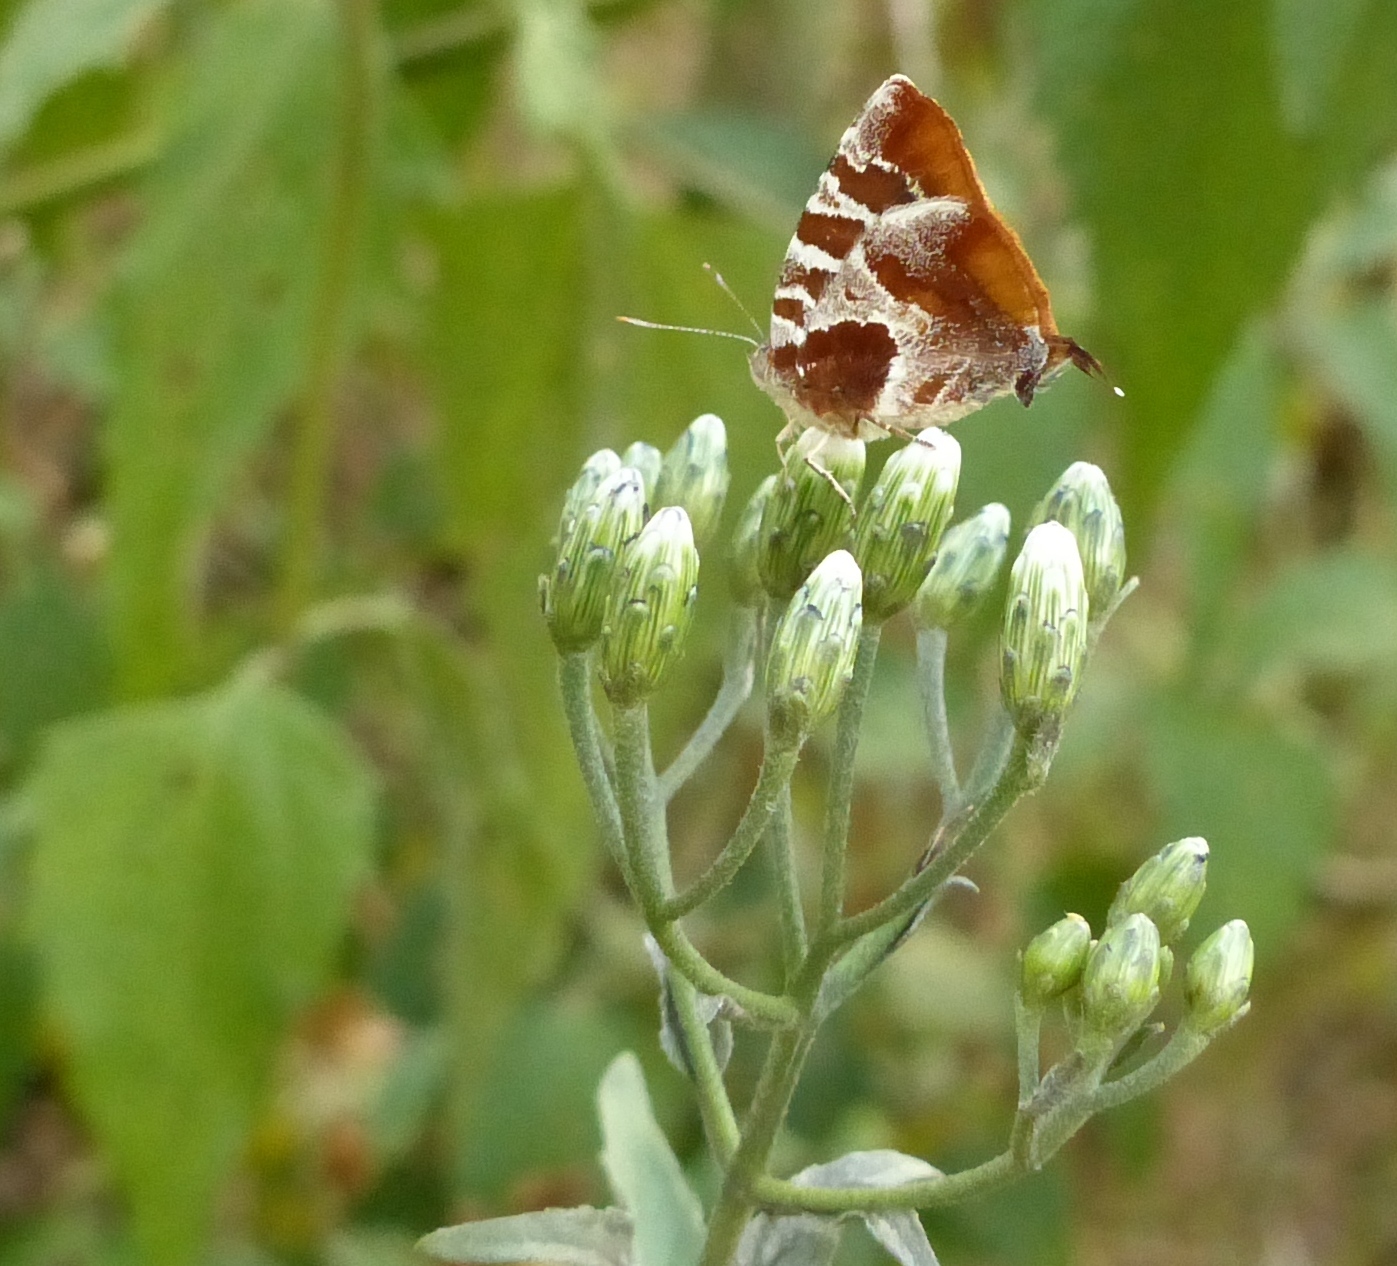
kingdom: Animalia
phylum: Arthropoda
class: Insecta
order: Lepidoptera
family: Lycaenidae
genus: Arawacus
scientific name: Arawacus ellida
